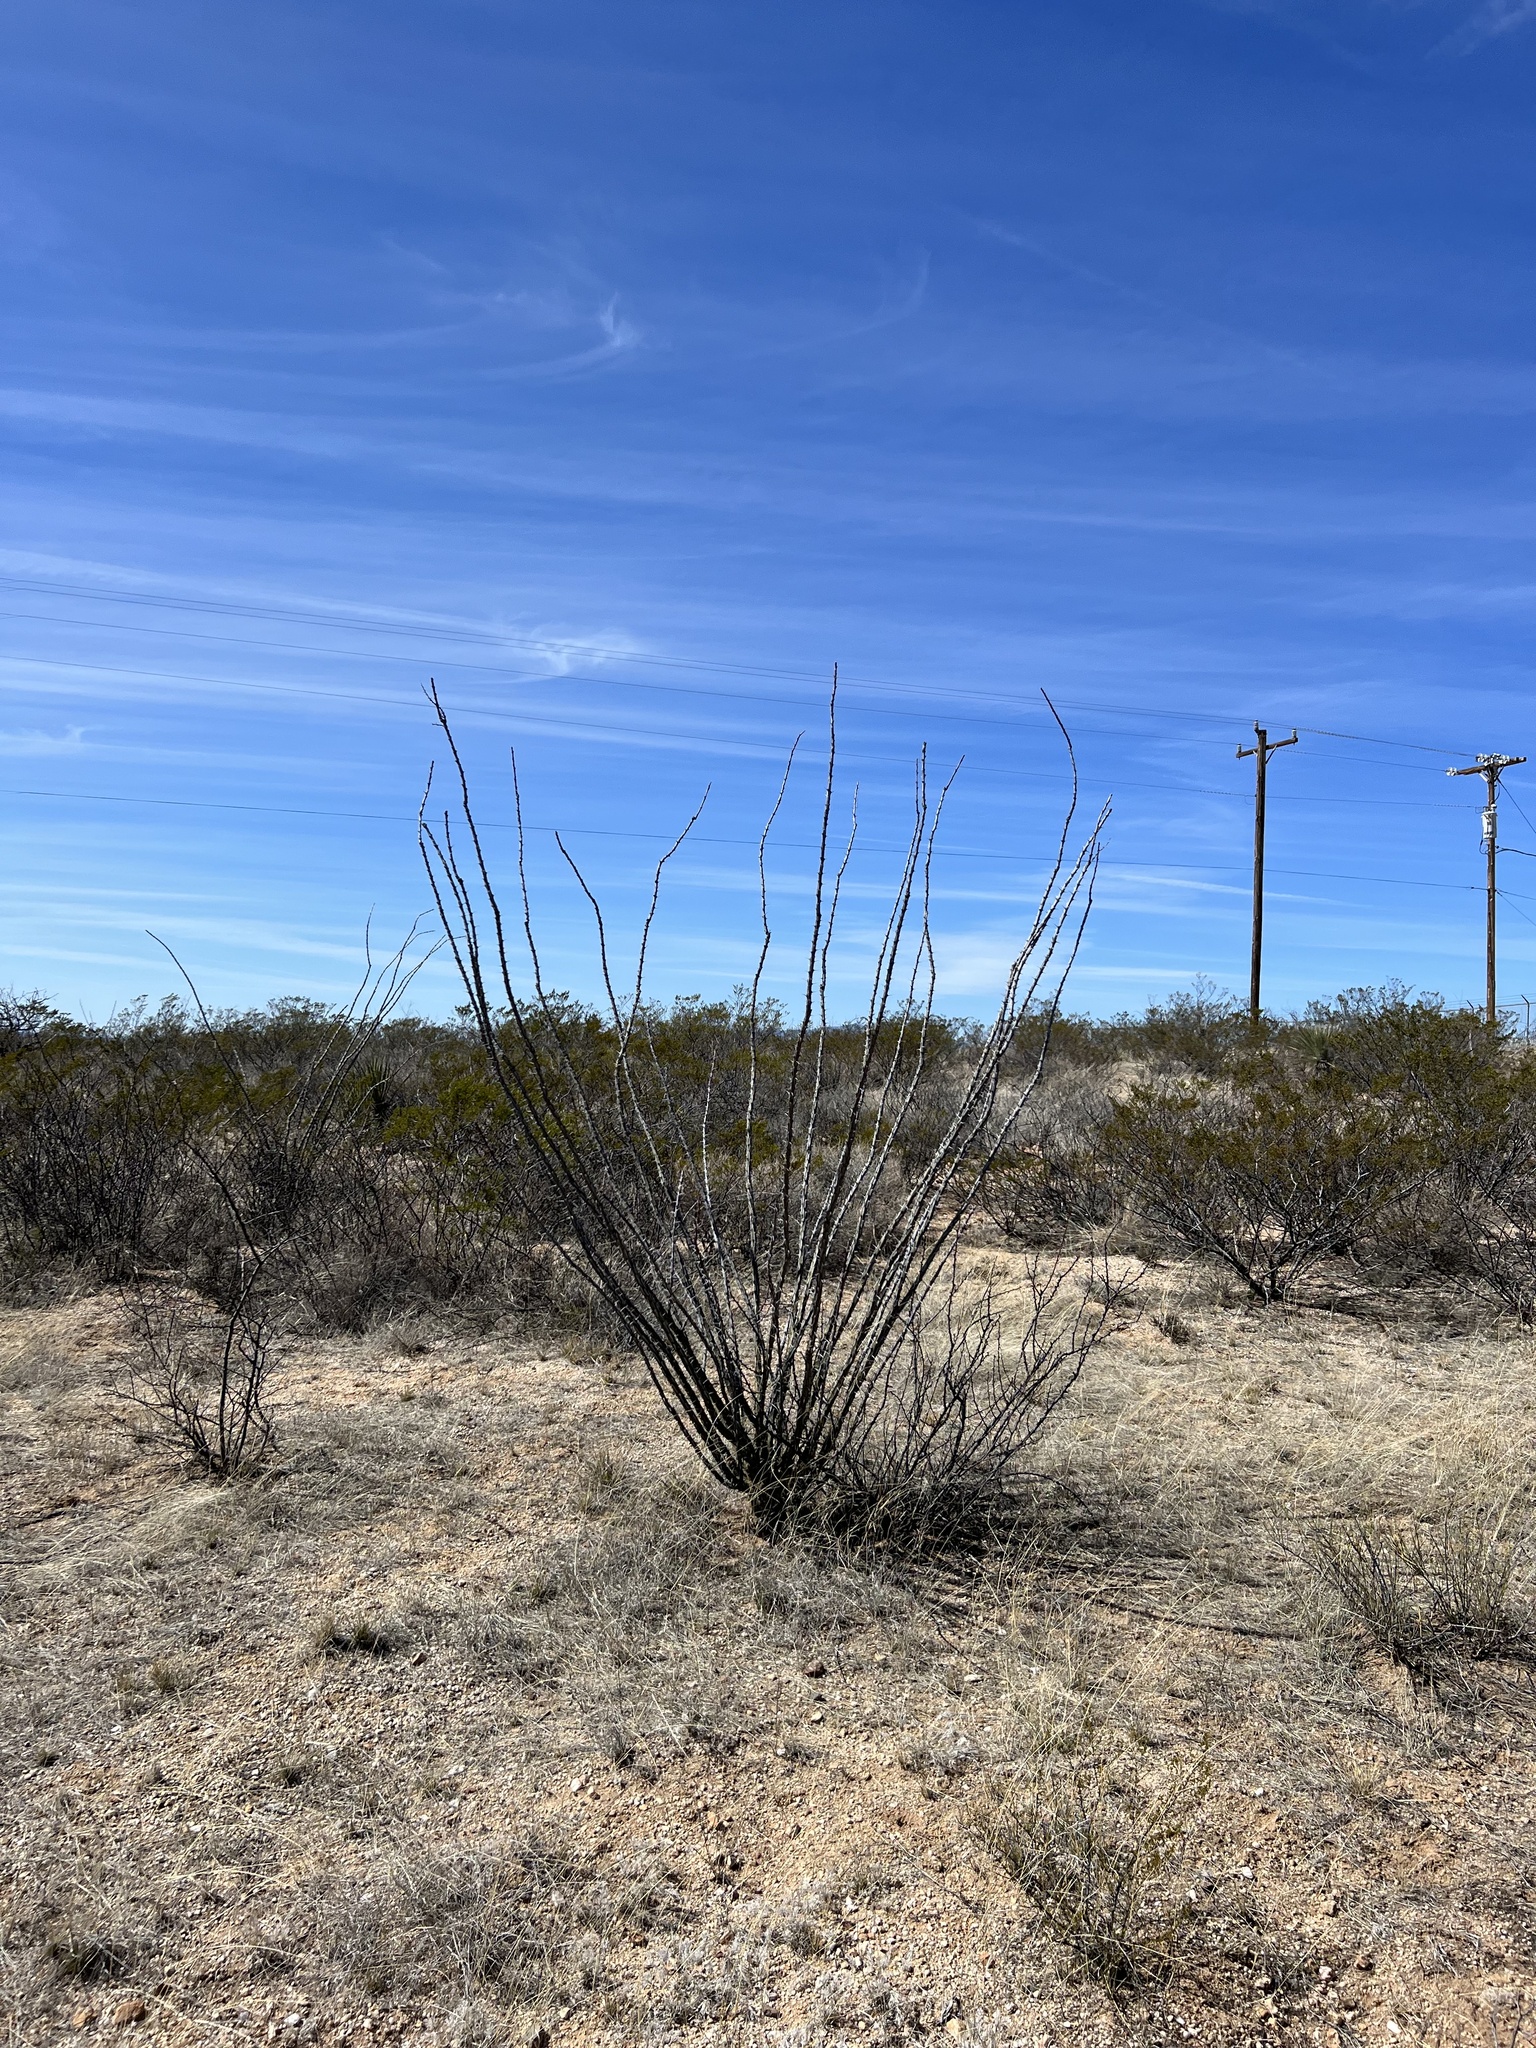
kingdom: Plantae
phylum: Tracheophyta
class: Magnoliopsida
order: Ericales
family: Fouquieriaceae
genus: Fouquieria
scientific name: Fouquieria splendens
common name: Vine-cactus
